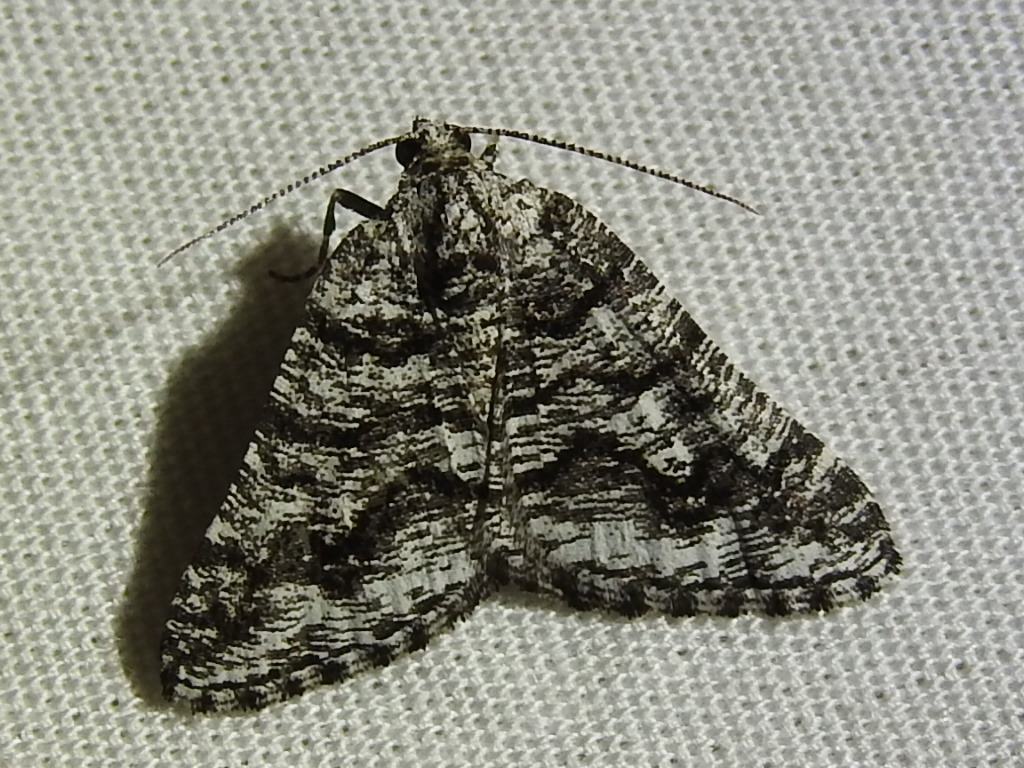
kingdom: Animalia
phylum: Arthropoda
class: Insecta
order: Lepidoptera
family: Geometridae
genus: Macaria
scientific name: Macaria schatzeata
